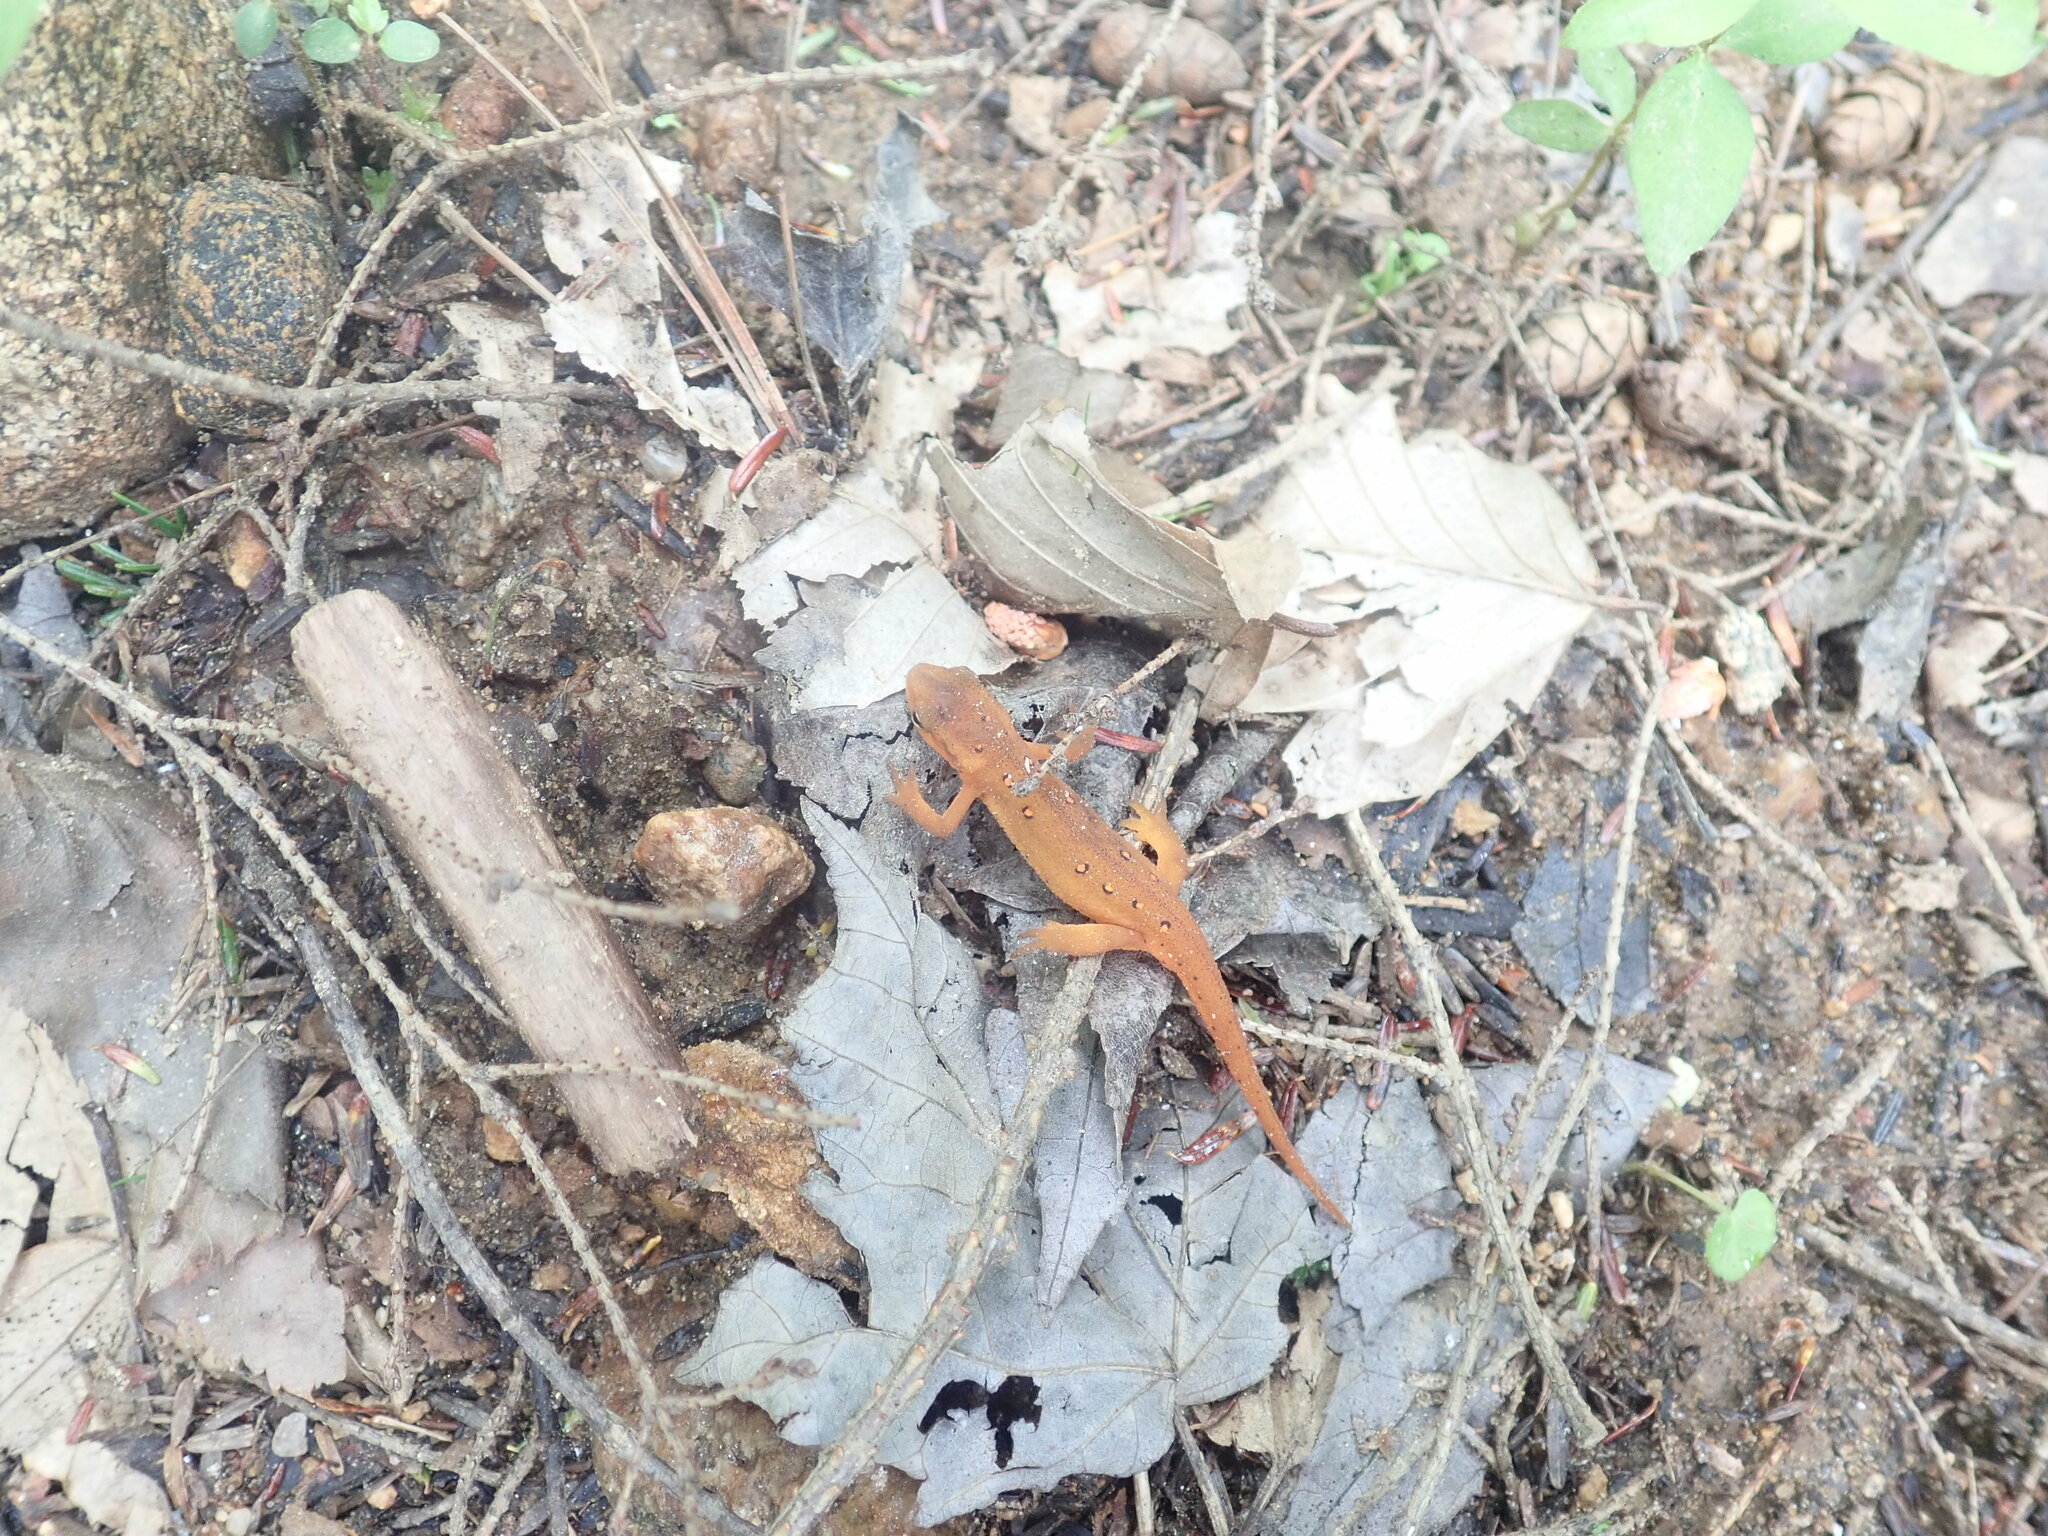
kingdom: Animalia
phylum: Chordata
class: Amphibia
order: Caudata
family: Salamandridae
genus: Notophthalmus
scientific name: Notophthalmus viridescens
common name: Eastern newt
